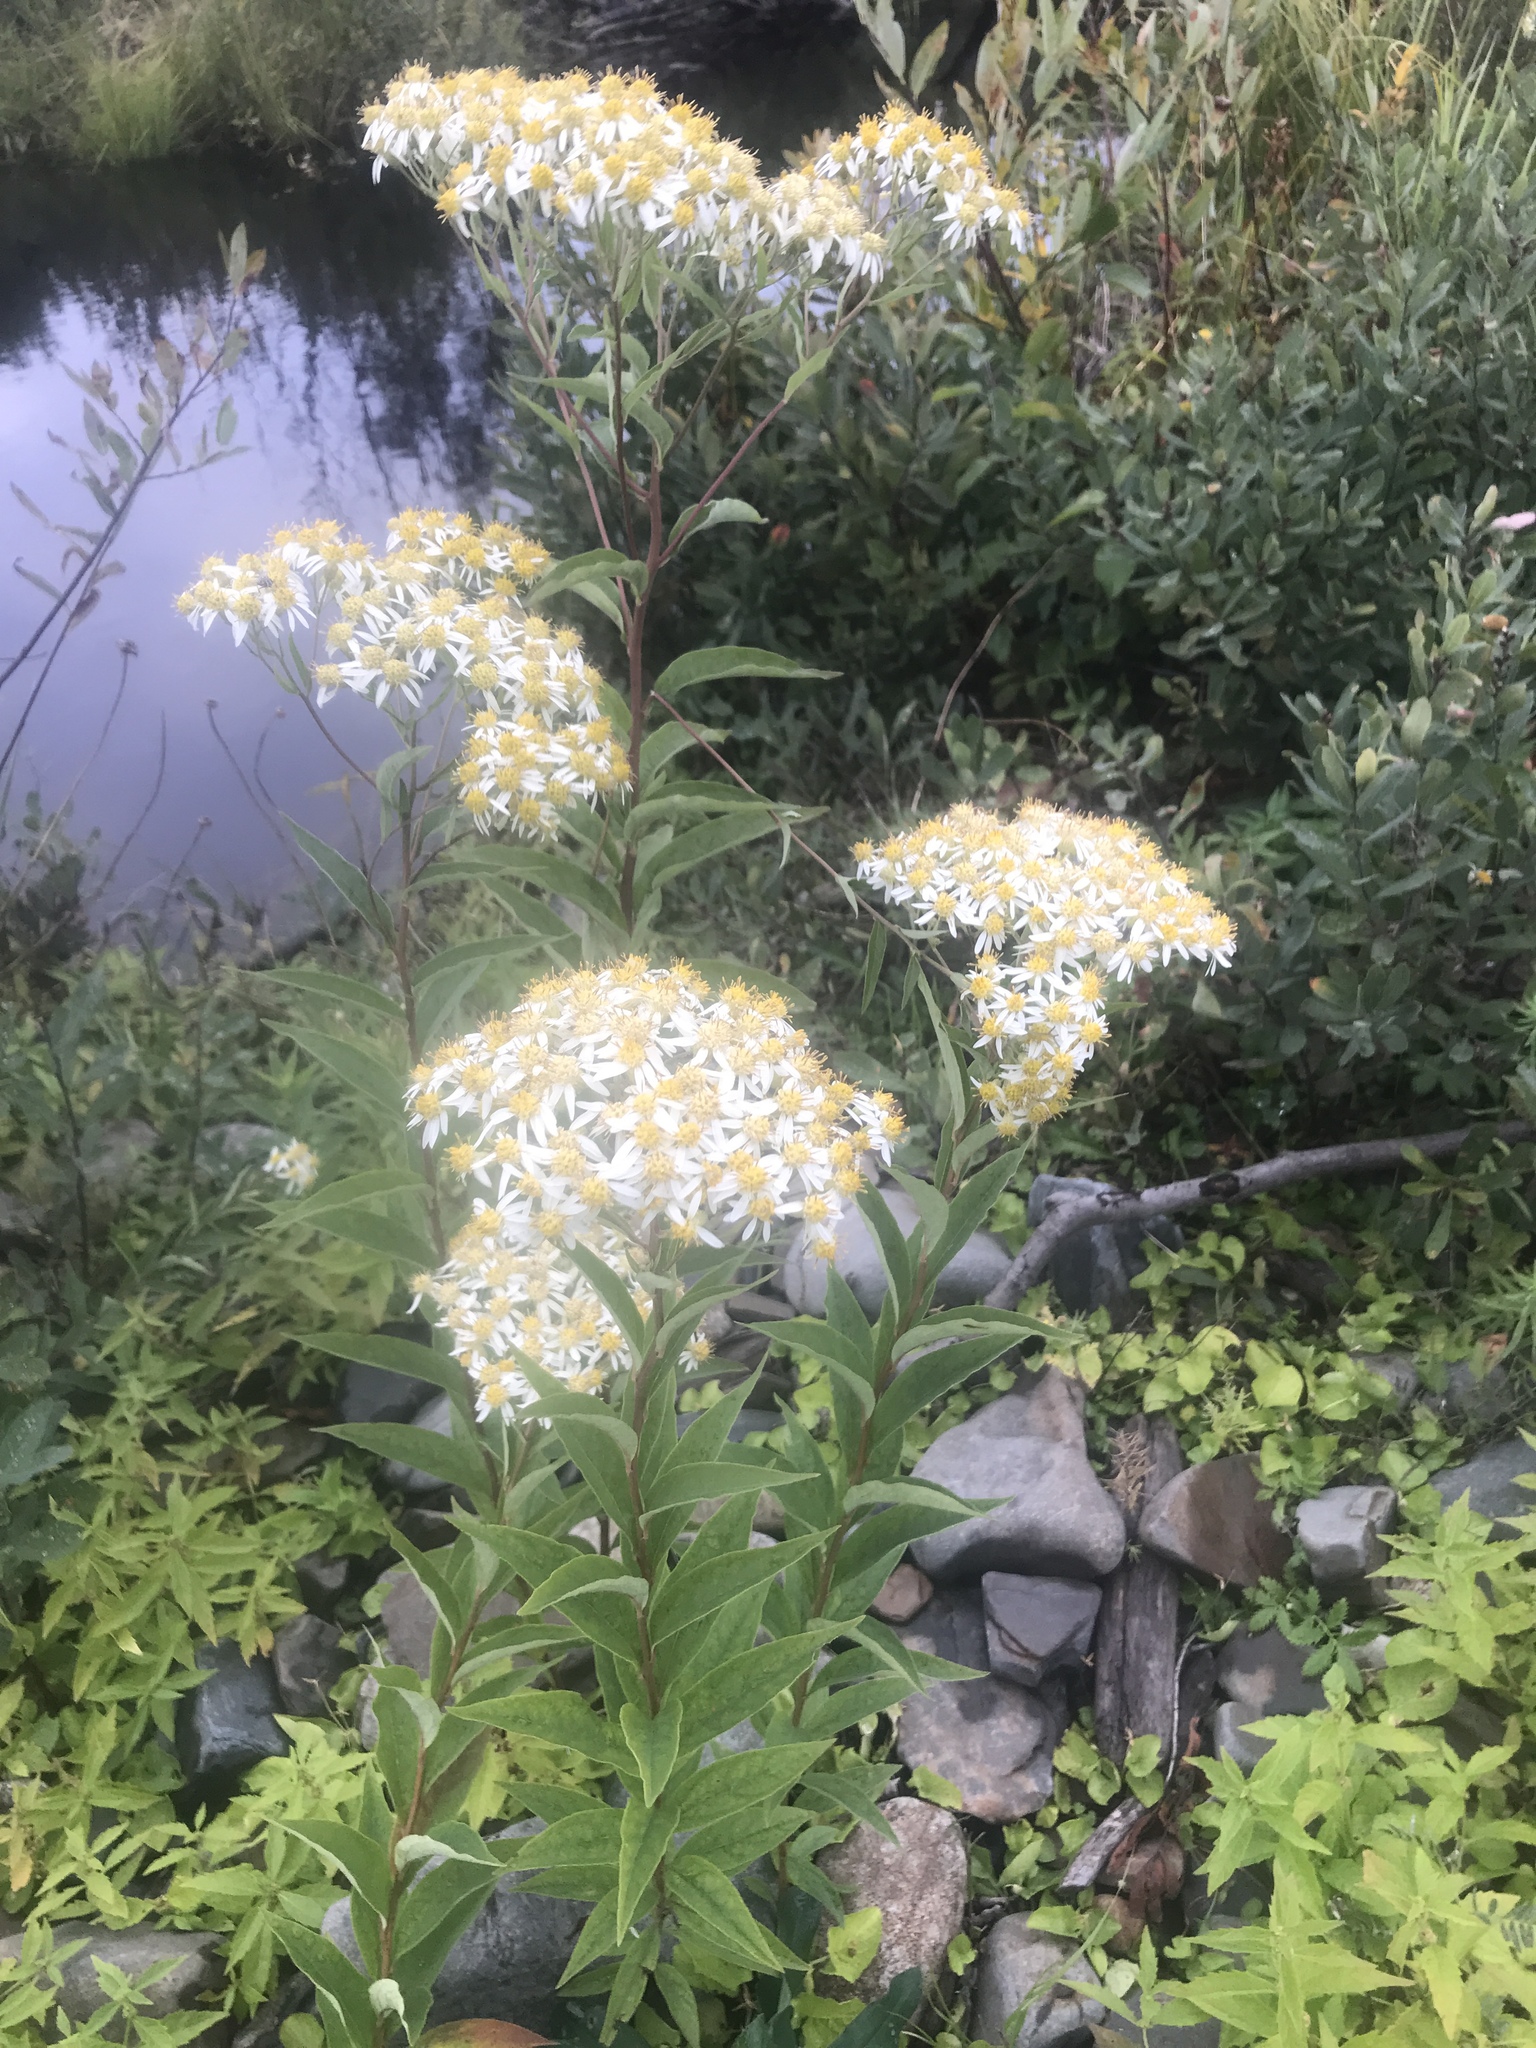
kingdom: Plantae
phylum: Tracheophyta
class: Magnoliopsida
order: Asterales
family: Asteraceae
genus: Doellingeria
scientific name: Doellingeria umbellata
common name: Flat-top white aster
